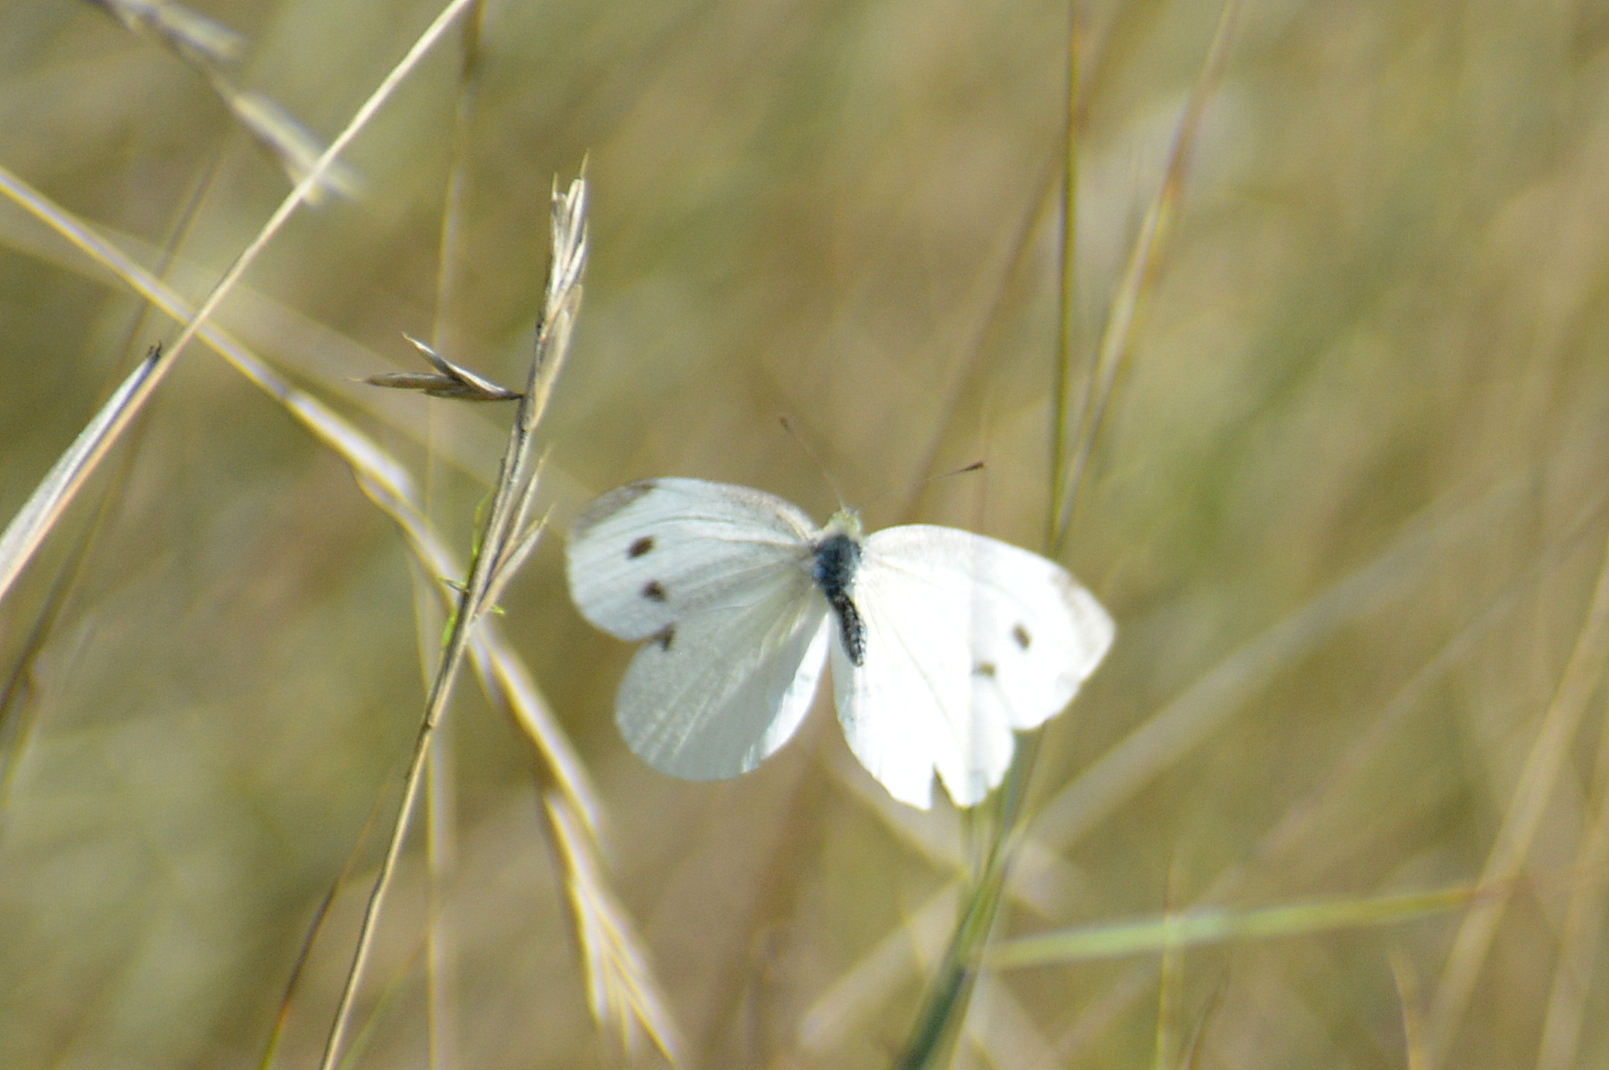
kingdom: Animalia
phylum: Arthropoda
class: Insecta
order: Lepidoptera
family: Pieridae
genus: Pieris
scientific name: Pieris rapae
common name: Small white
